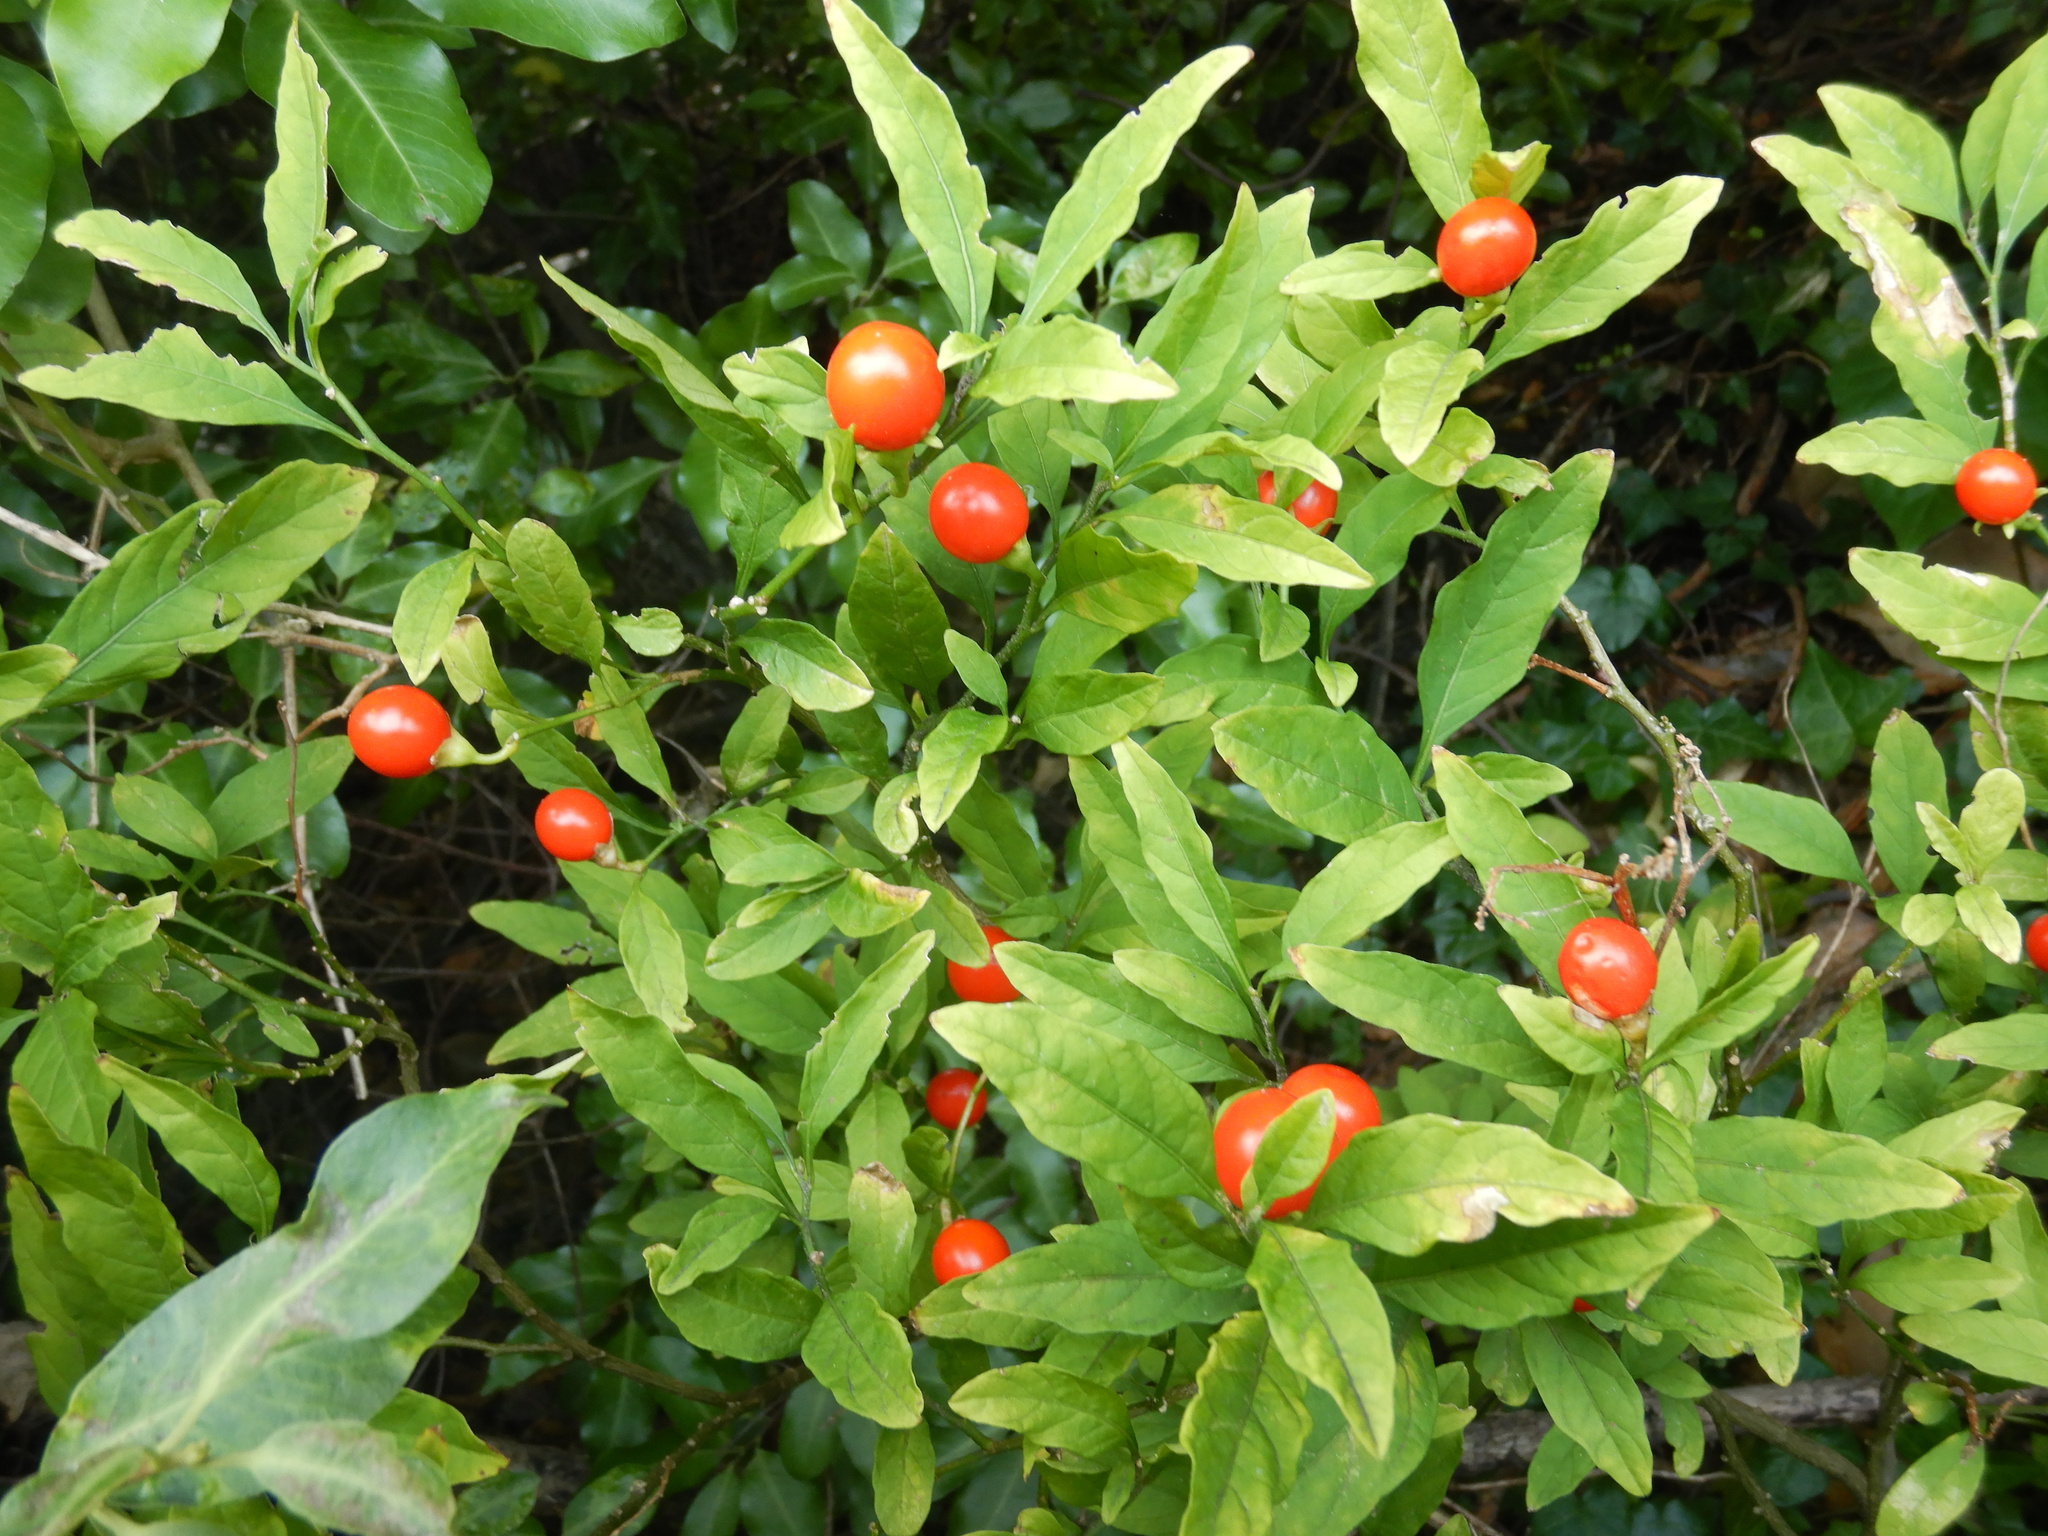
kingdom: Plantae
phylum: Tracheophyta
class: Magnoliopsida
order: Solanales
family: Solanaceae
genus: Solanum
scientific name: Solanum pseudocapsicum
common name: Jerusalem cherry
